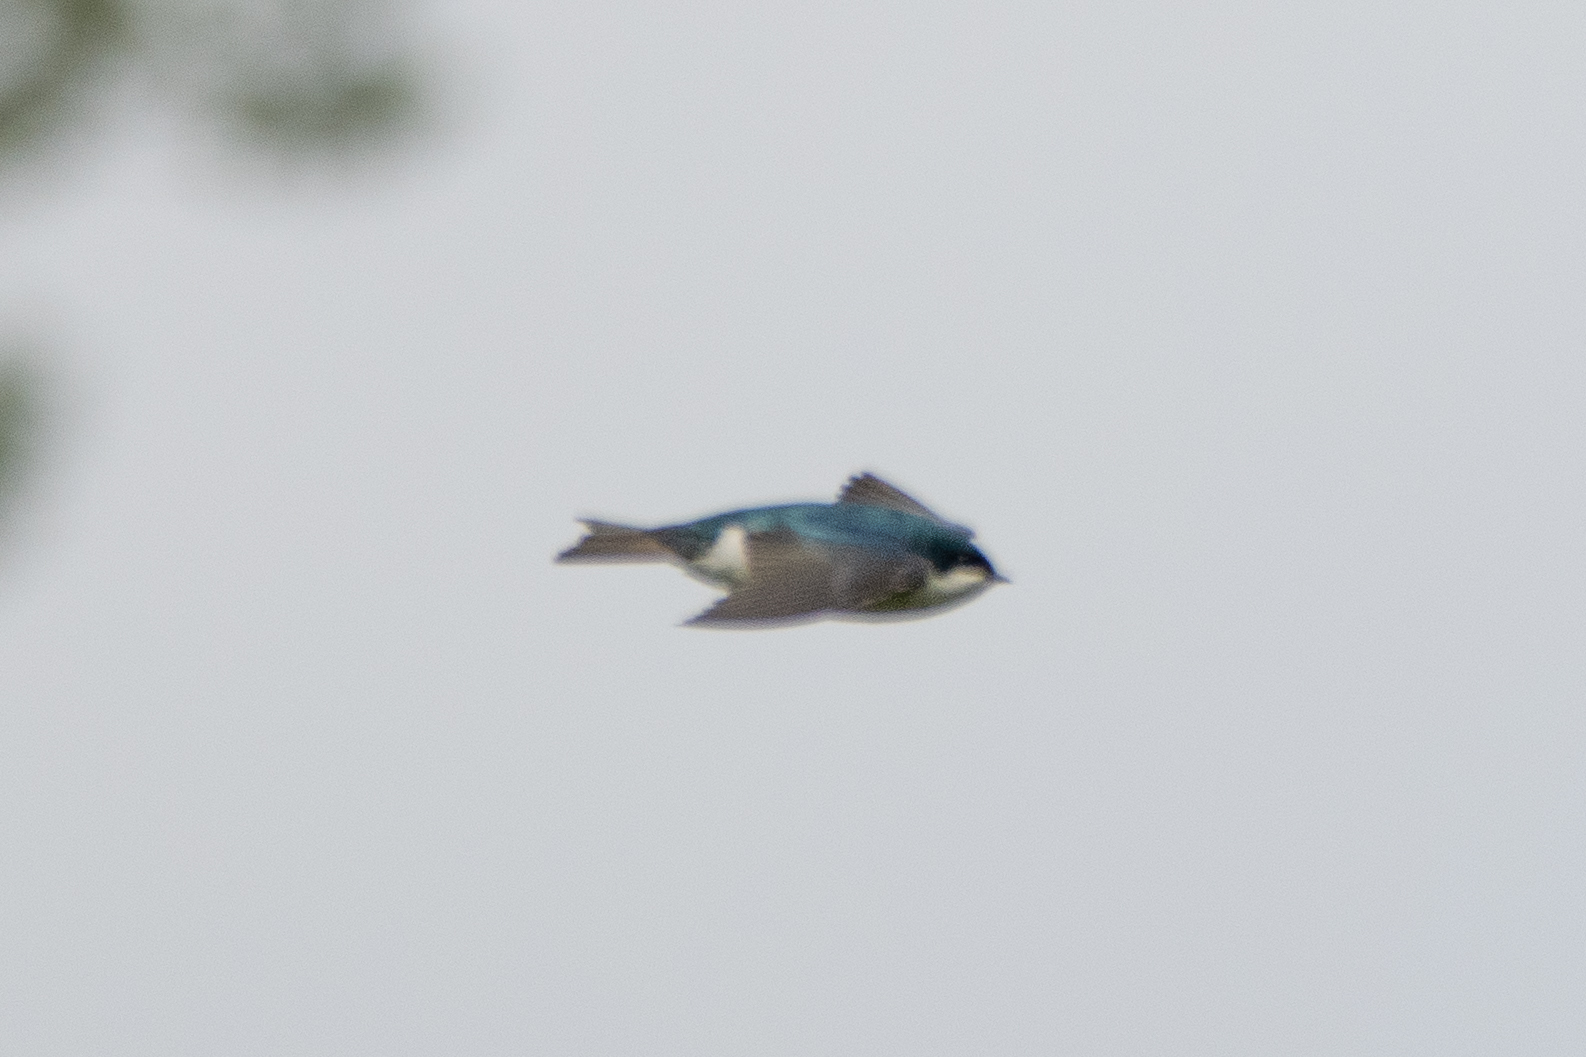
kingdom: Animalia
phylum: Chordata
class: Aves
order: Passeriformes
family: Hirundinidae
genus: Tachycineta
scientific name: Tachycineta bicolor
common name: Tree swallow
